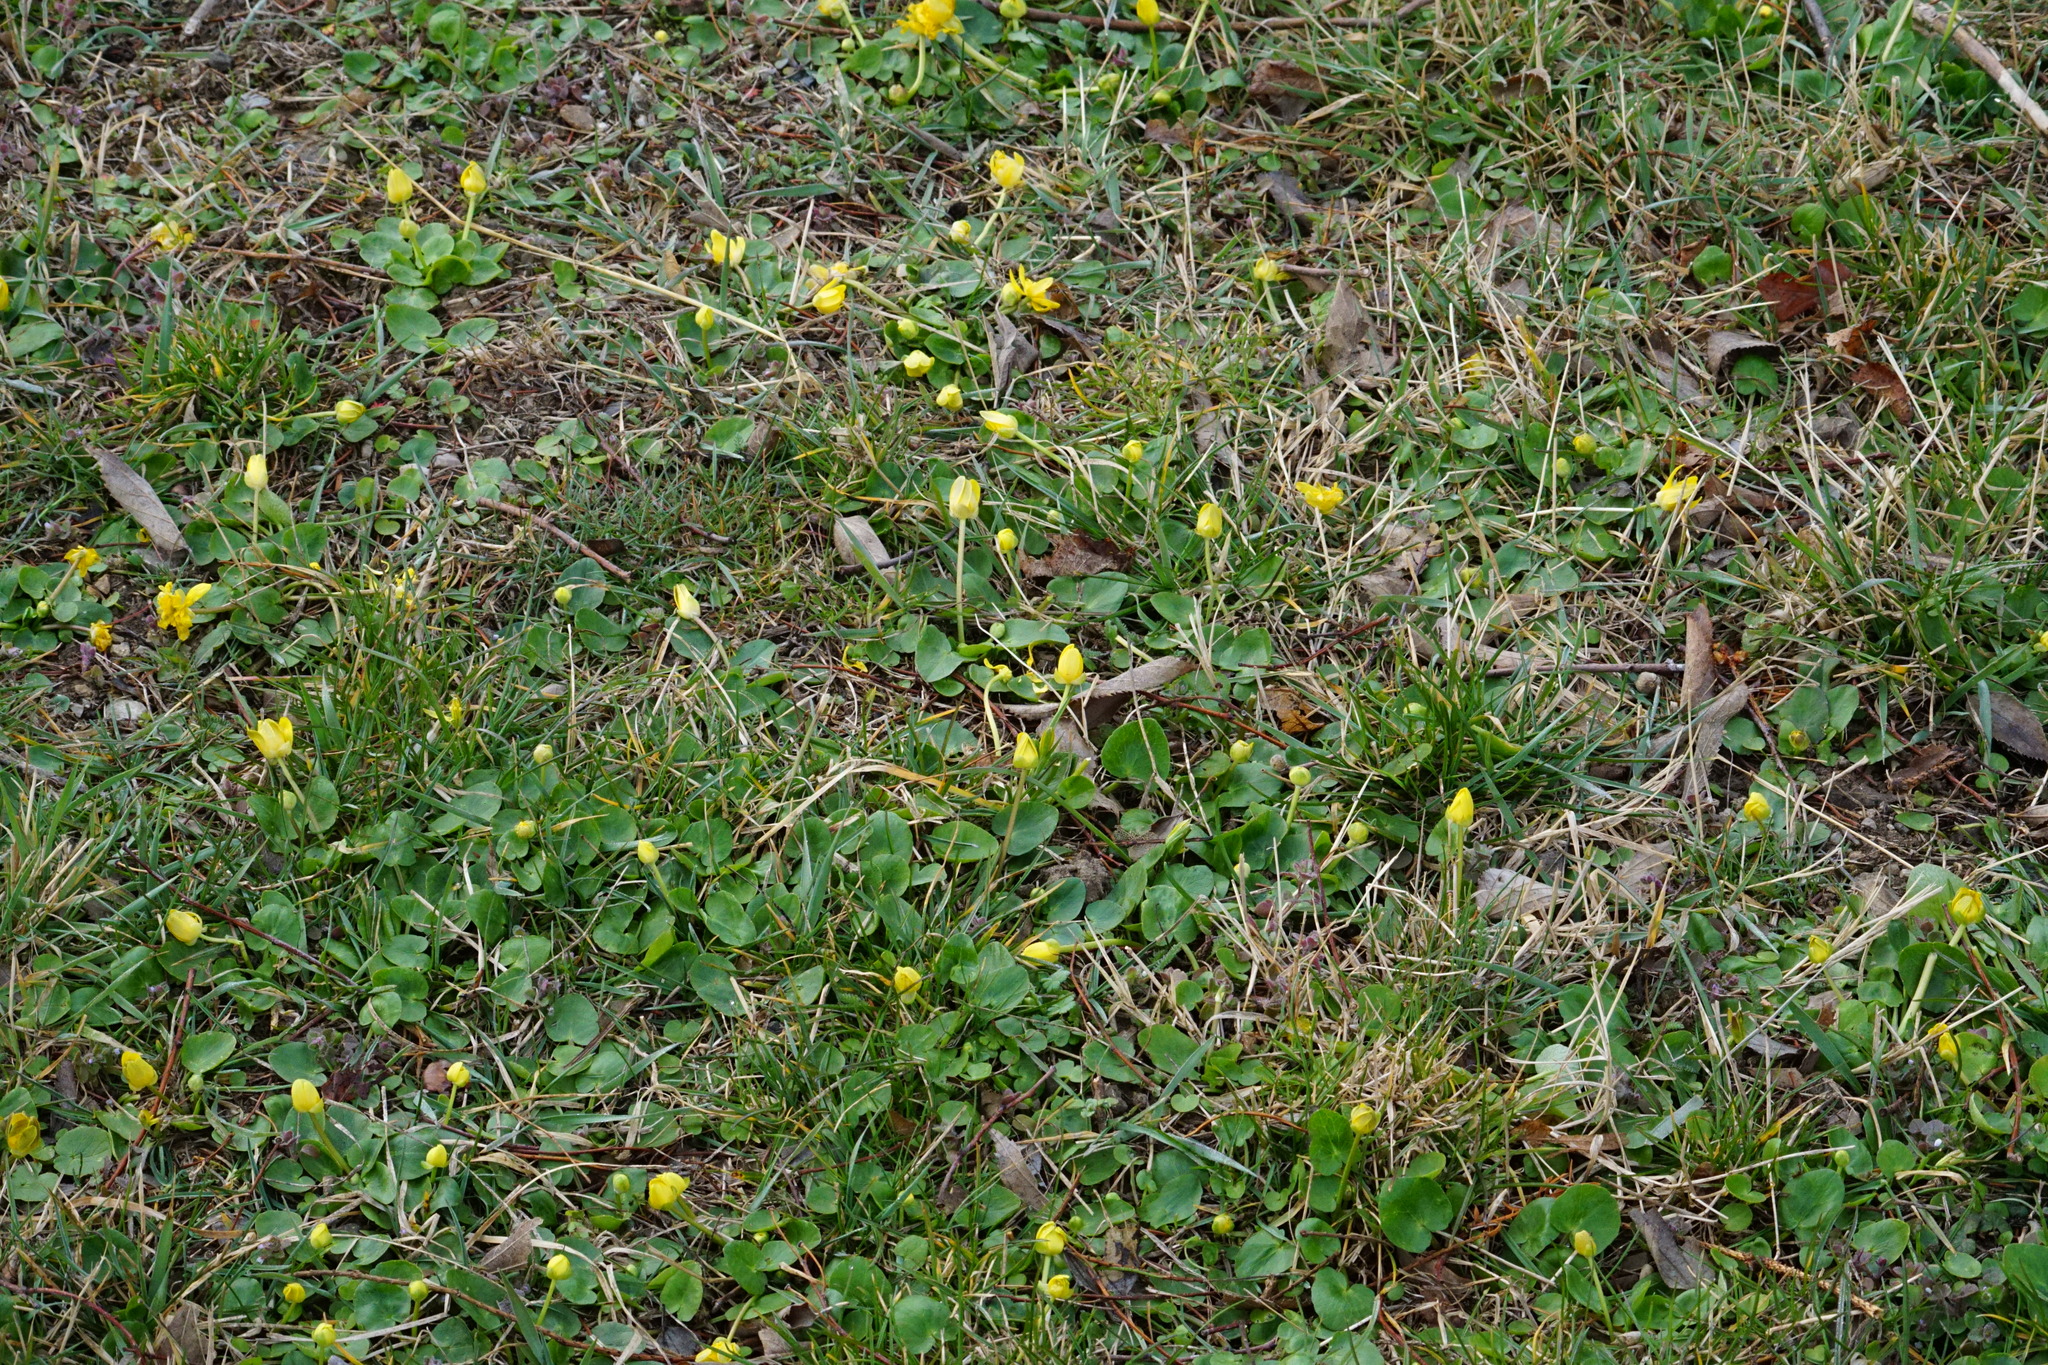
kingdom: Plantae
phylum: Tracheophyta
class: Magnoliopsida
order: Ranunculales
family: Ranunculaceae
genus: Ficaria
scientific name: Ficaria verna
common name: Lesser celandine
